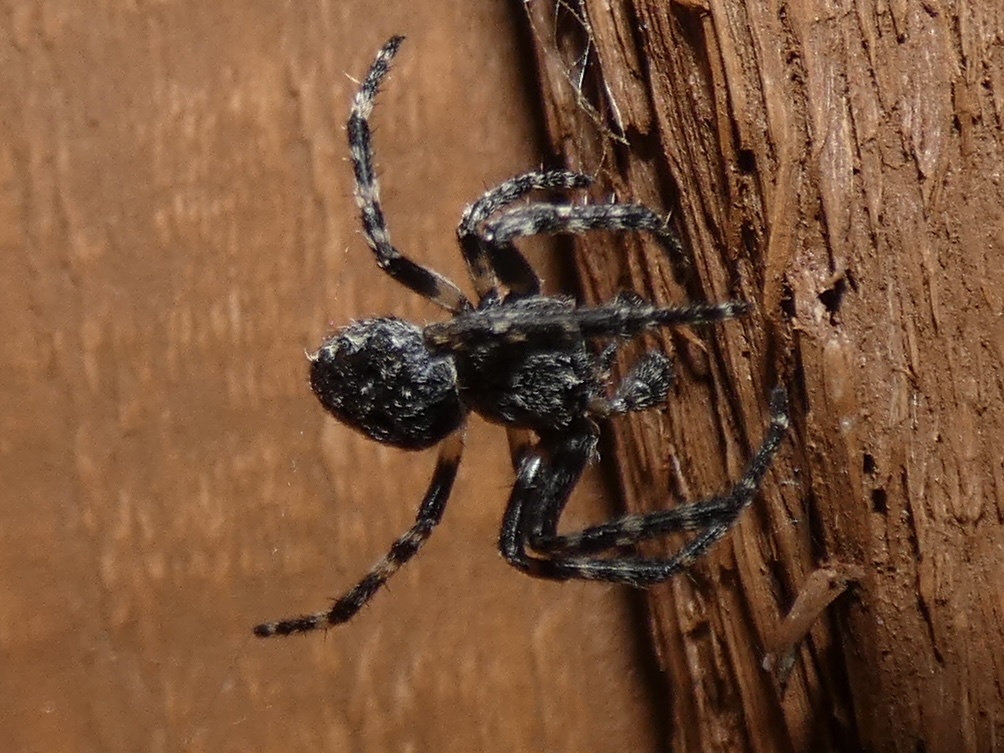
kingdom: Animalia
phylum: Arthropoda
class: Arachnida
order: Araneae
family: Araneidae
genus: Nuctenea
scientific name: Nuctenea umbratica
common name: Toad spider
